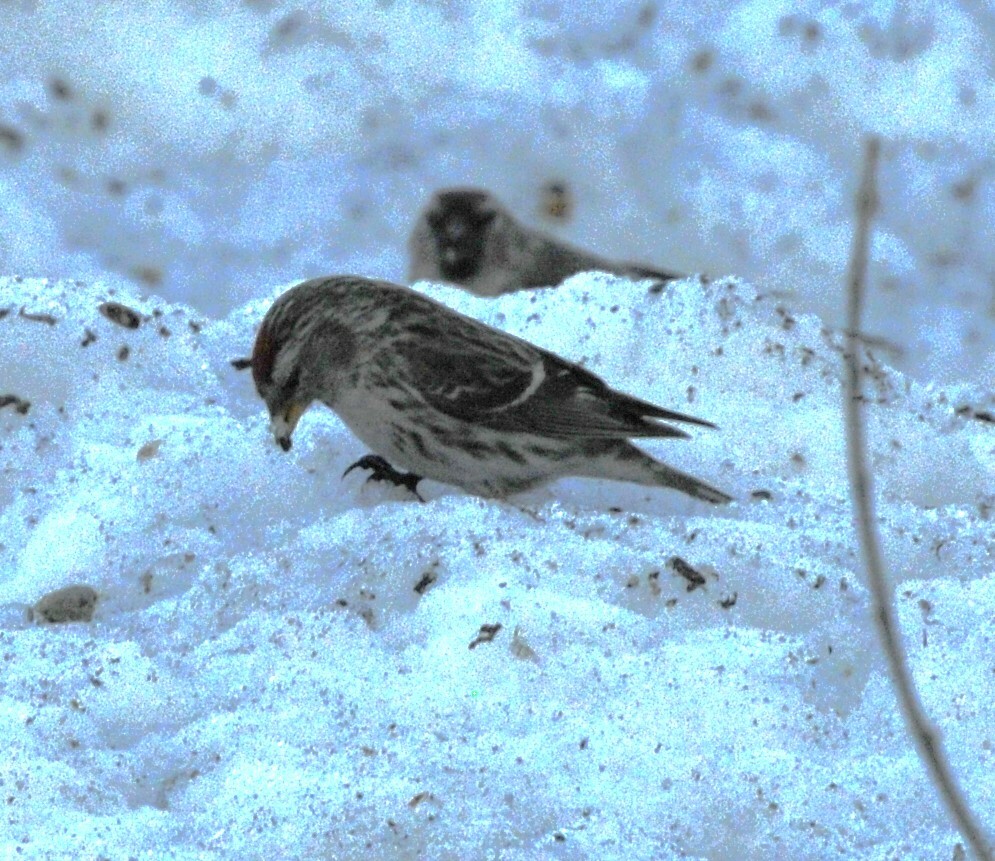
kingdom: Animalia
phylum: Chordata
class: Aves
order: Passeriformes
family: Fringillidae
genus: Acanthis
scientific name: Acanthis flammea
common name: Common redpoll
